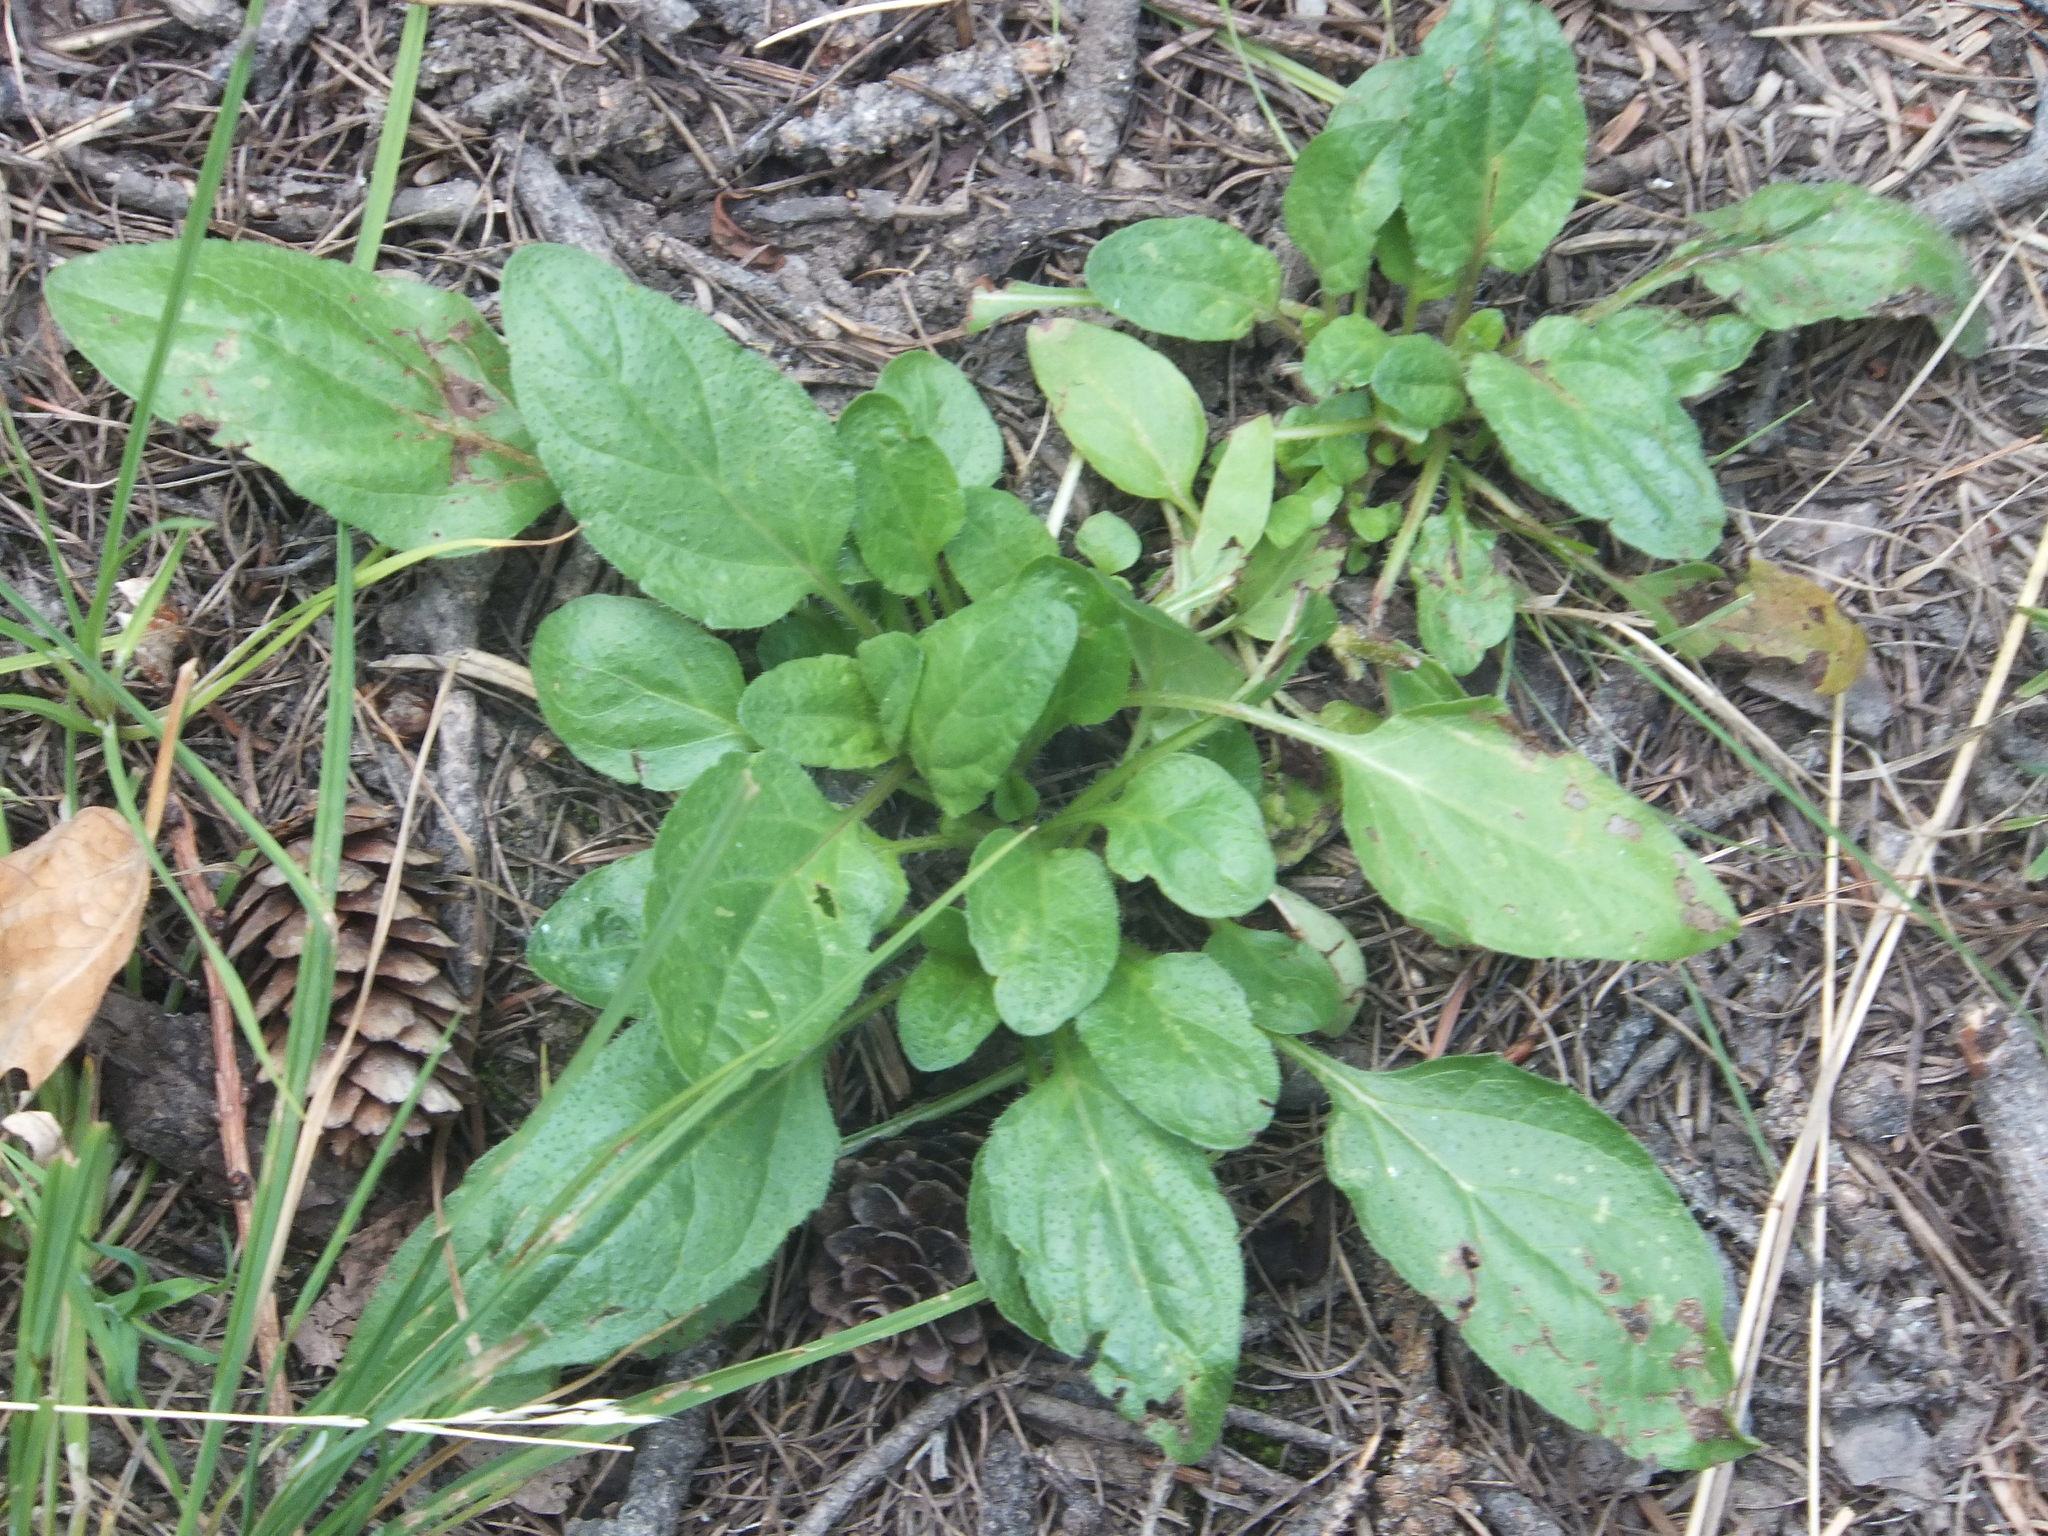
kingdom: Plantae
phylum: Tracheophyta
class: Magnoliopsida
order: Lamiales
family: Lamiaceae
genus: Prunella
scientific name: Prunella vulgaris
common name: Heal-all
